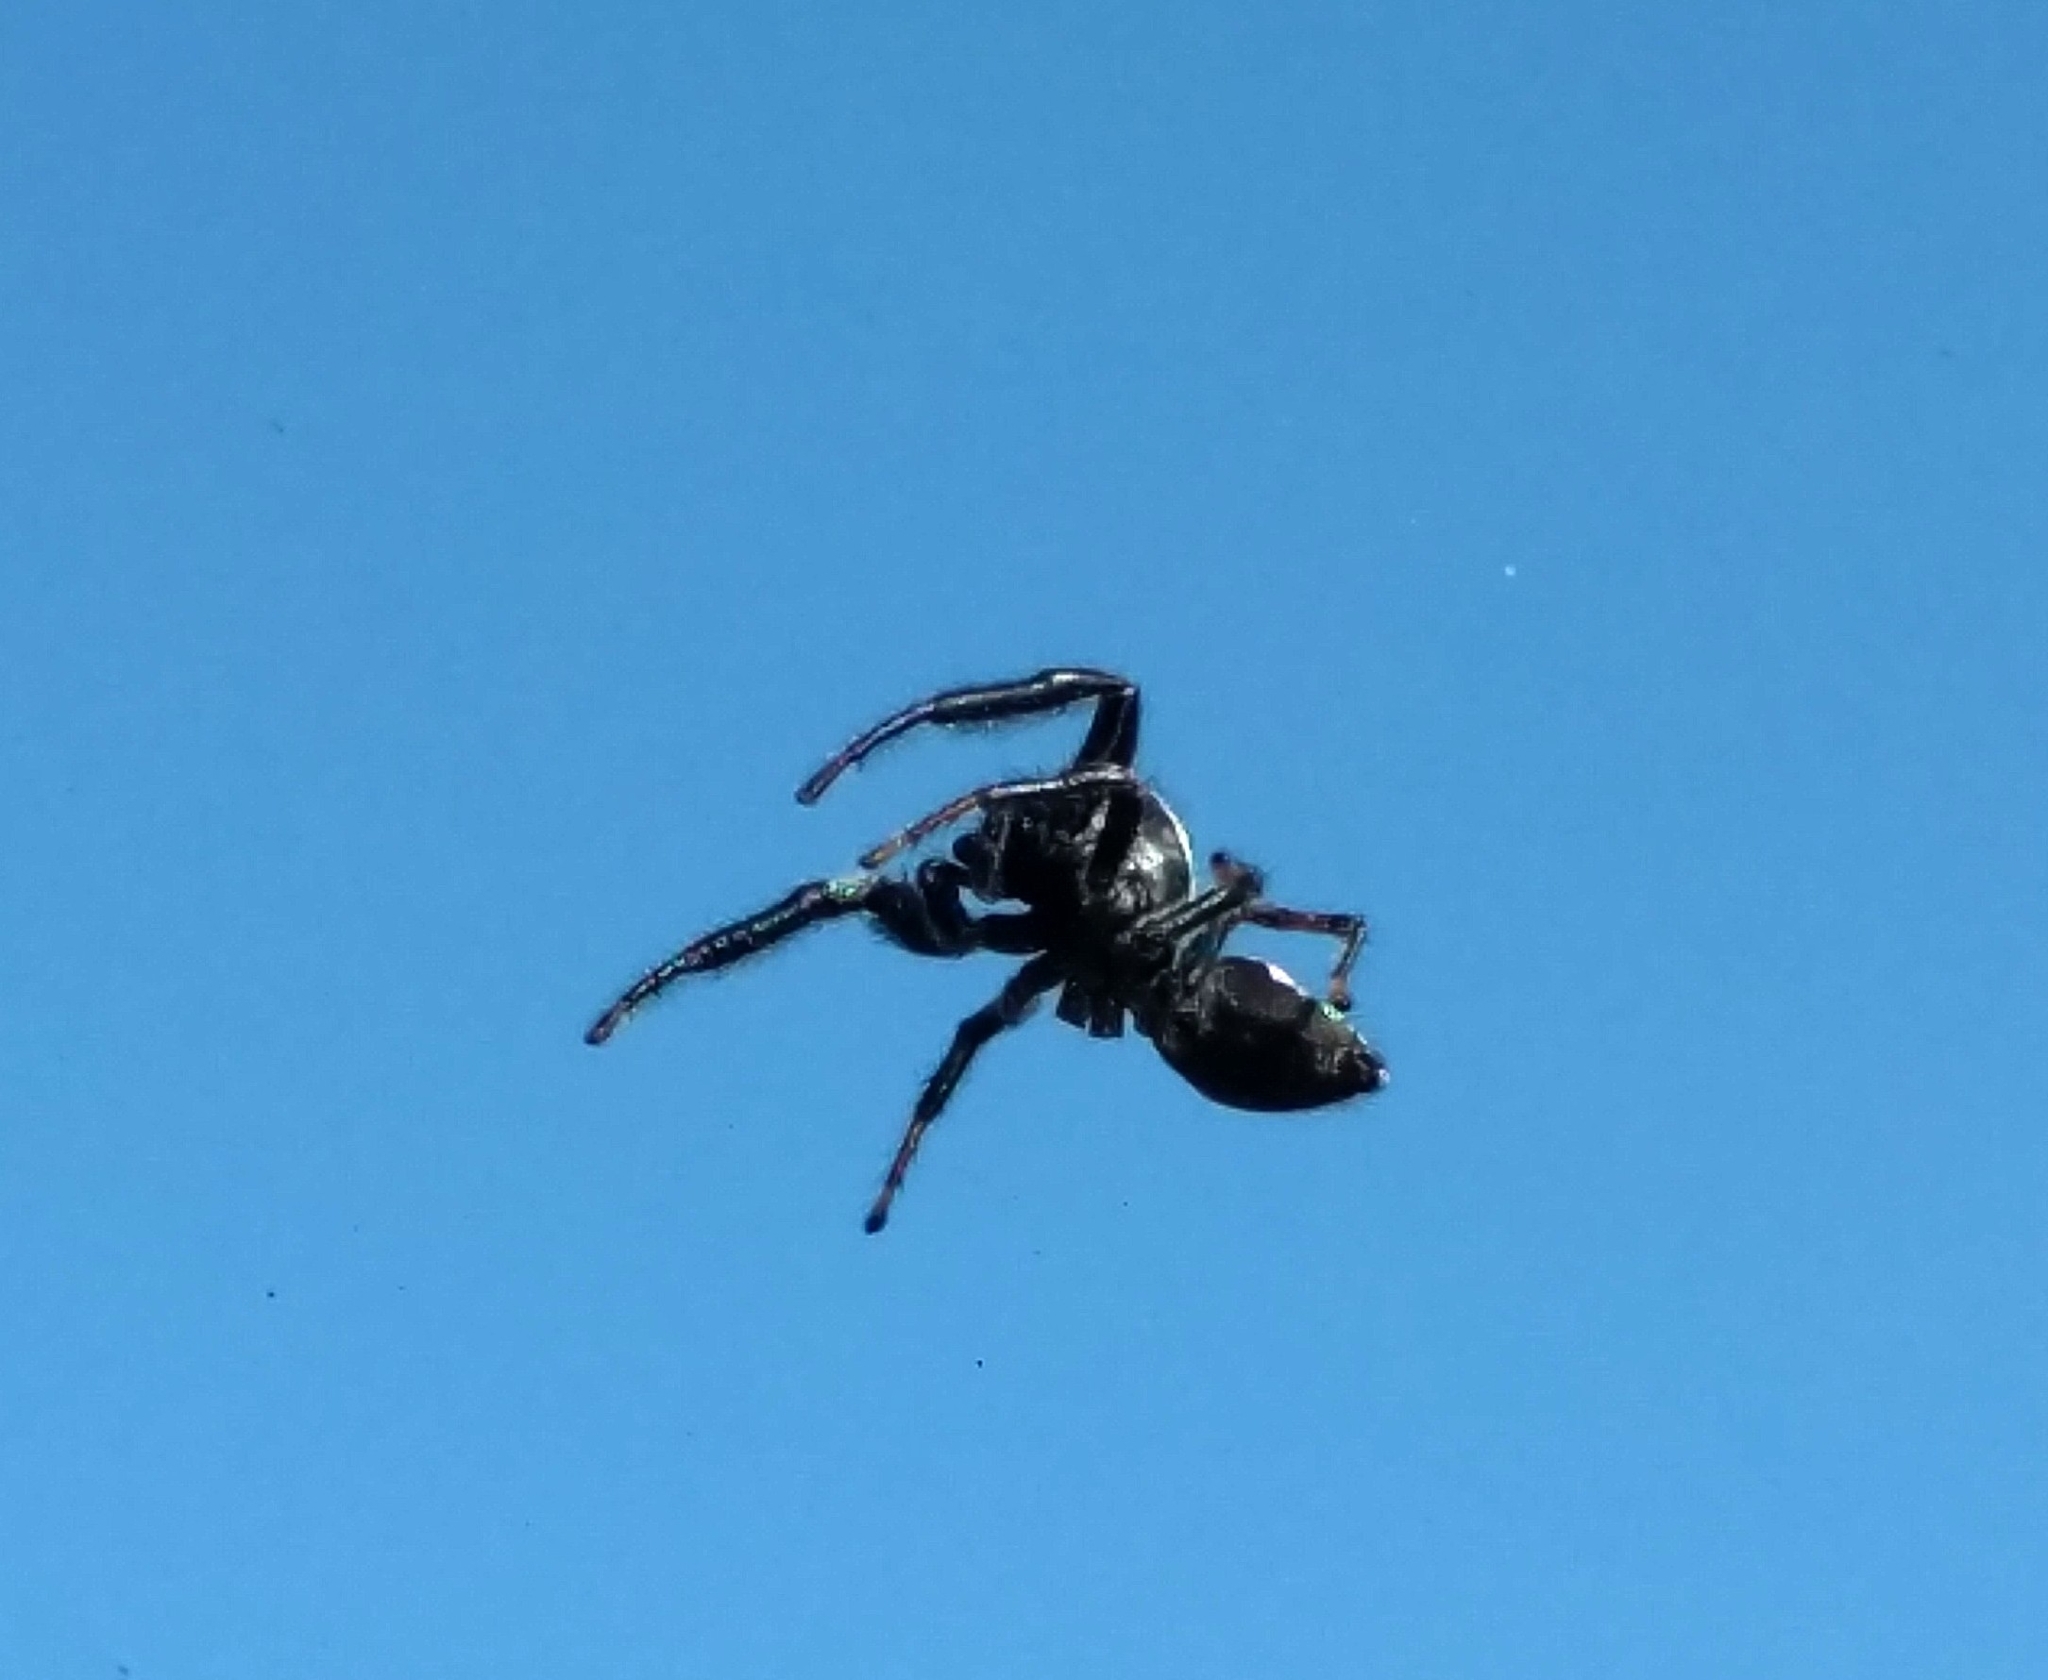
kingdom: Animalia
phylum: Arthropoda
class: Arachnida
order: Araneae
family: Salticidae
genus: Paraphidippus
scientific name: Paraphidippus aurantius
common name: Jumping spiders
